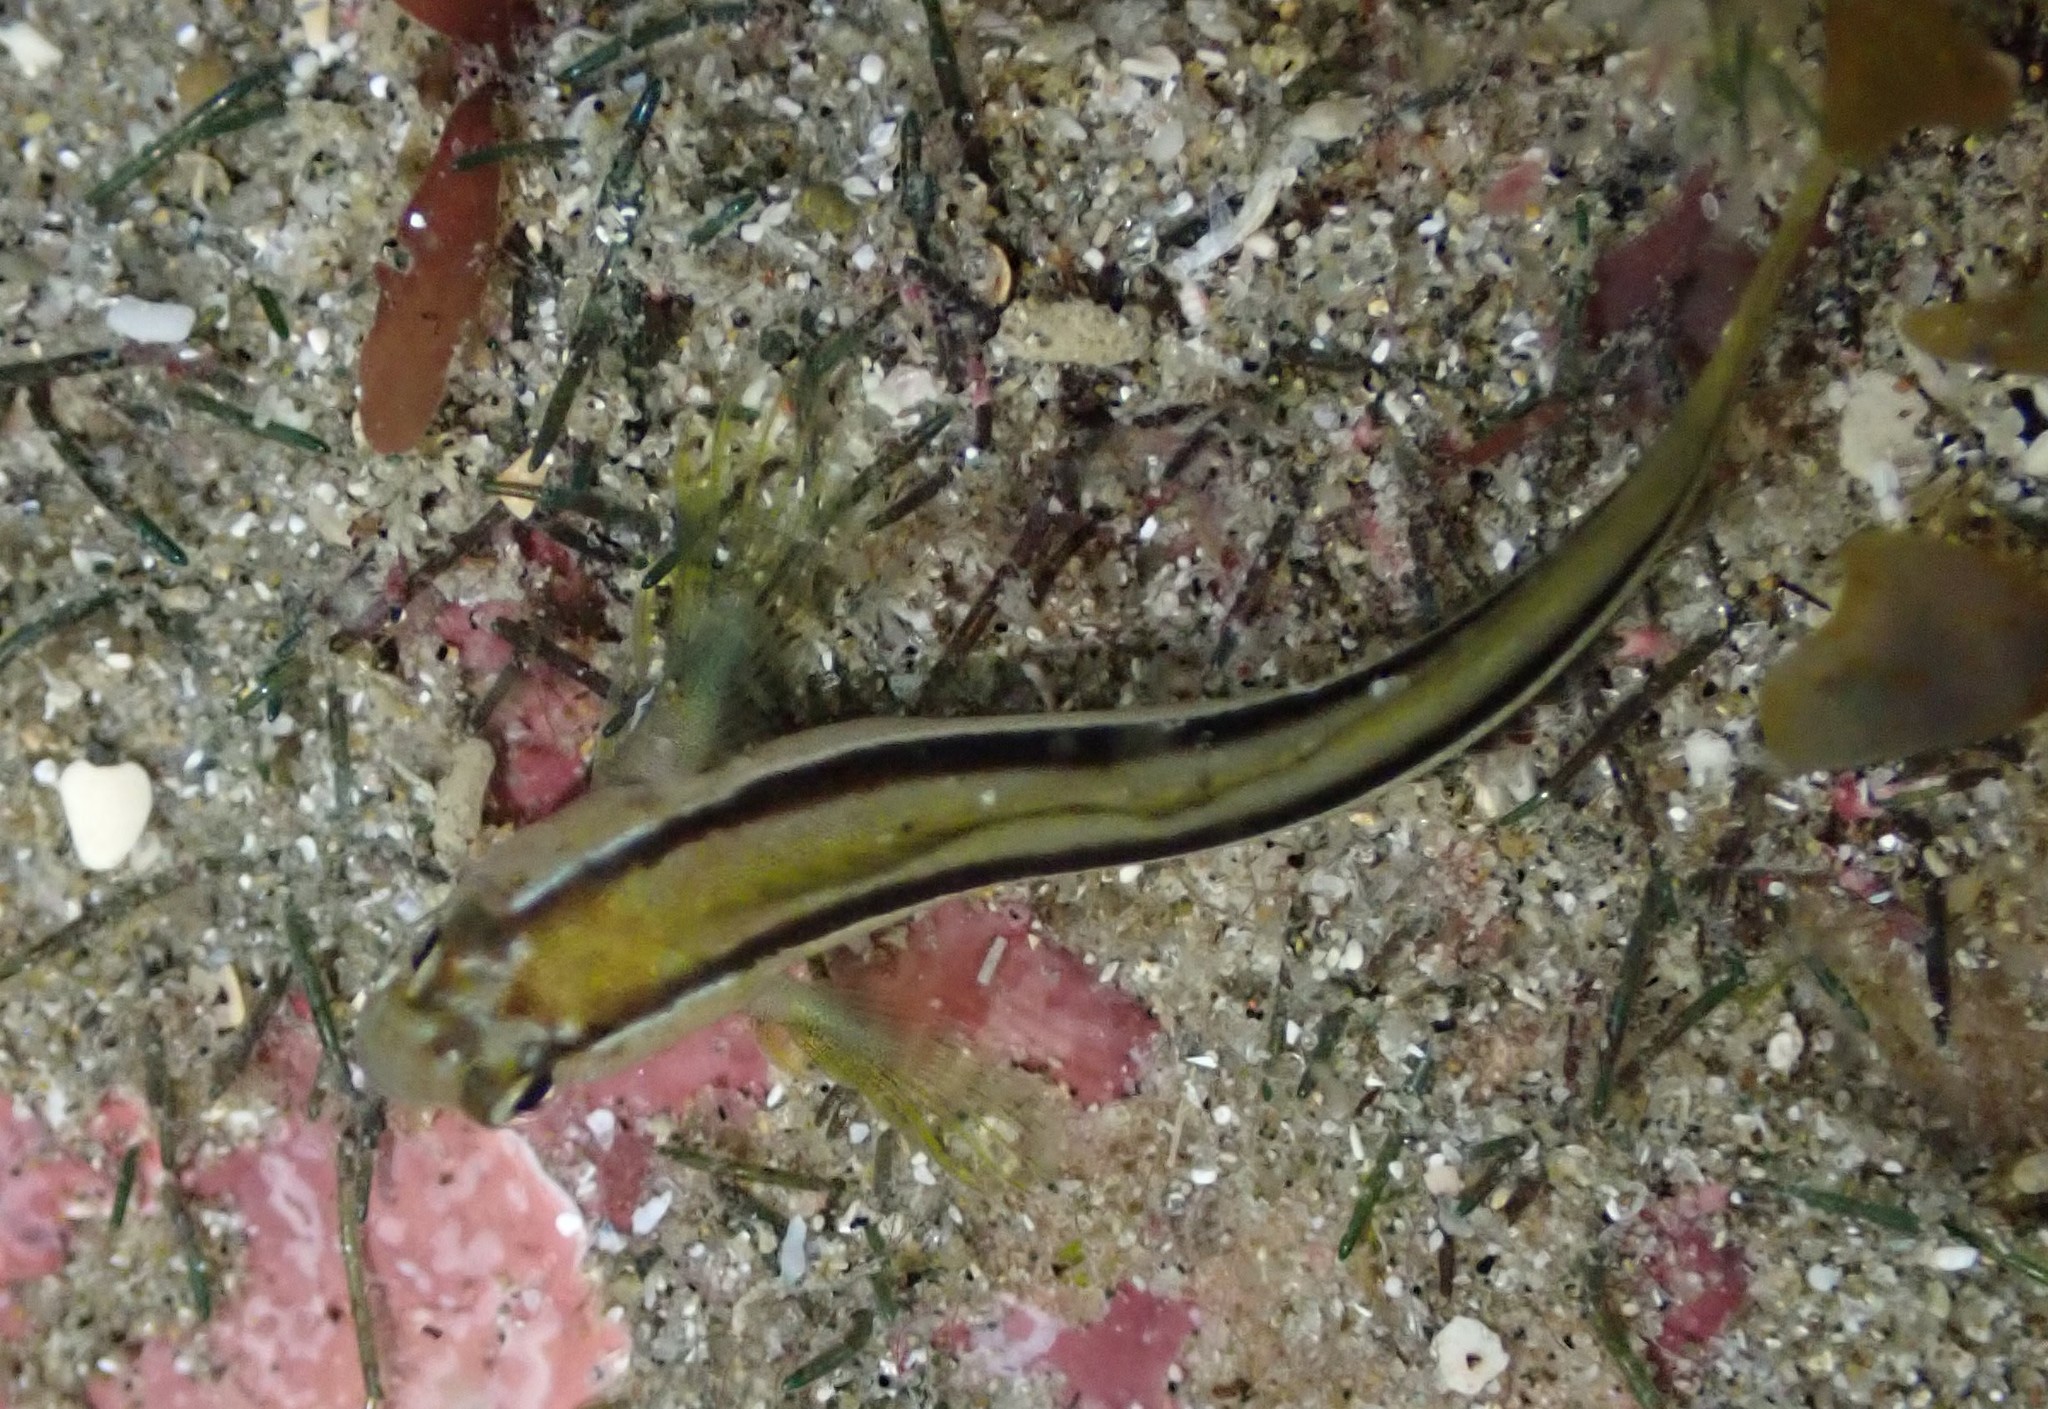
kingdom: Animalia
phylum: Chordata
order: Perciformes
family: Blenniidae
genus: Parablennius
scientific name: Parablennius laticlavius
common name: Crested blenny
